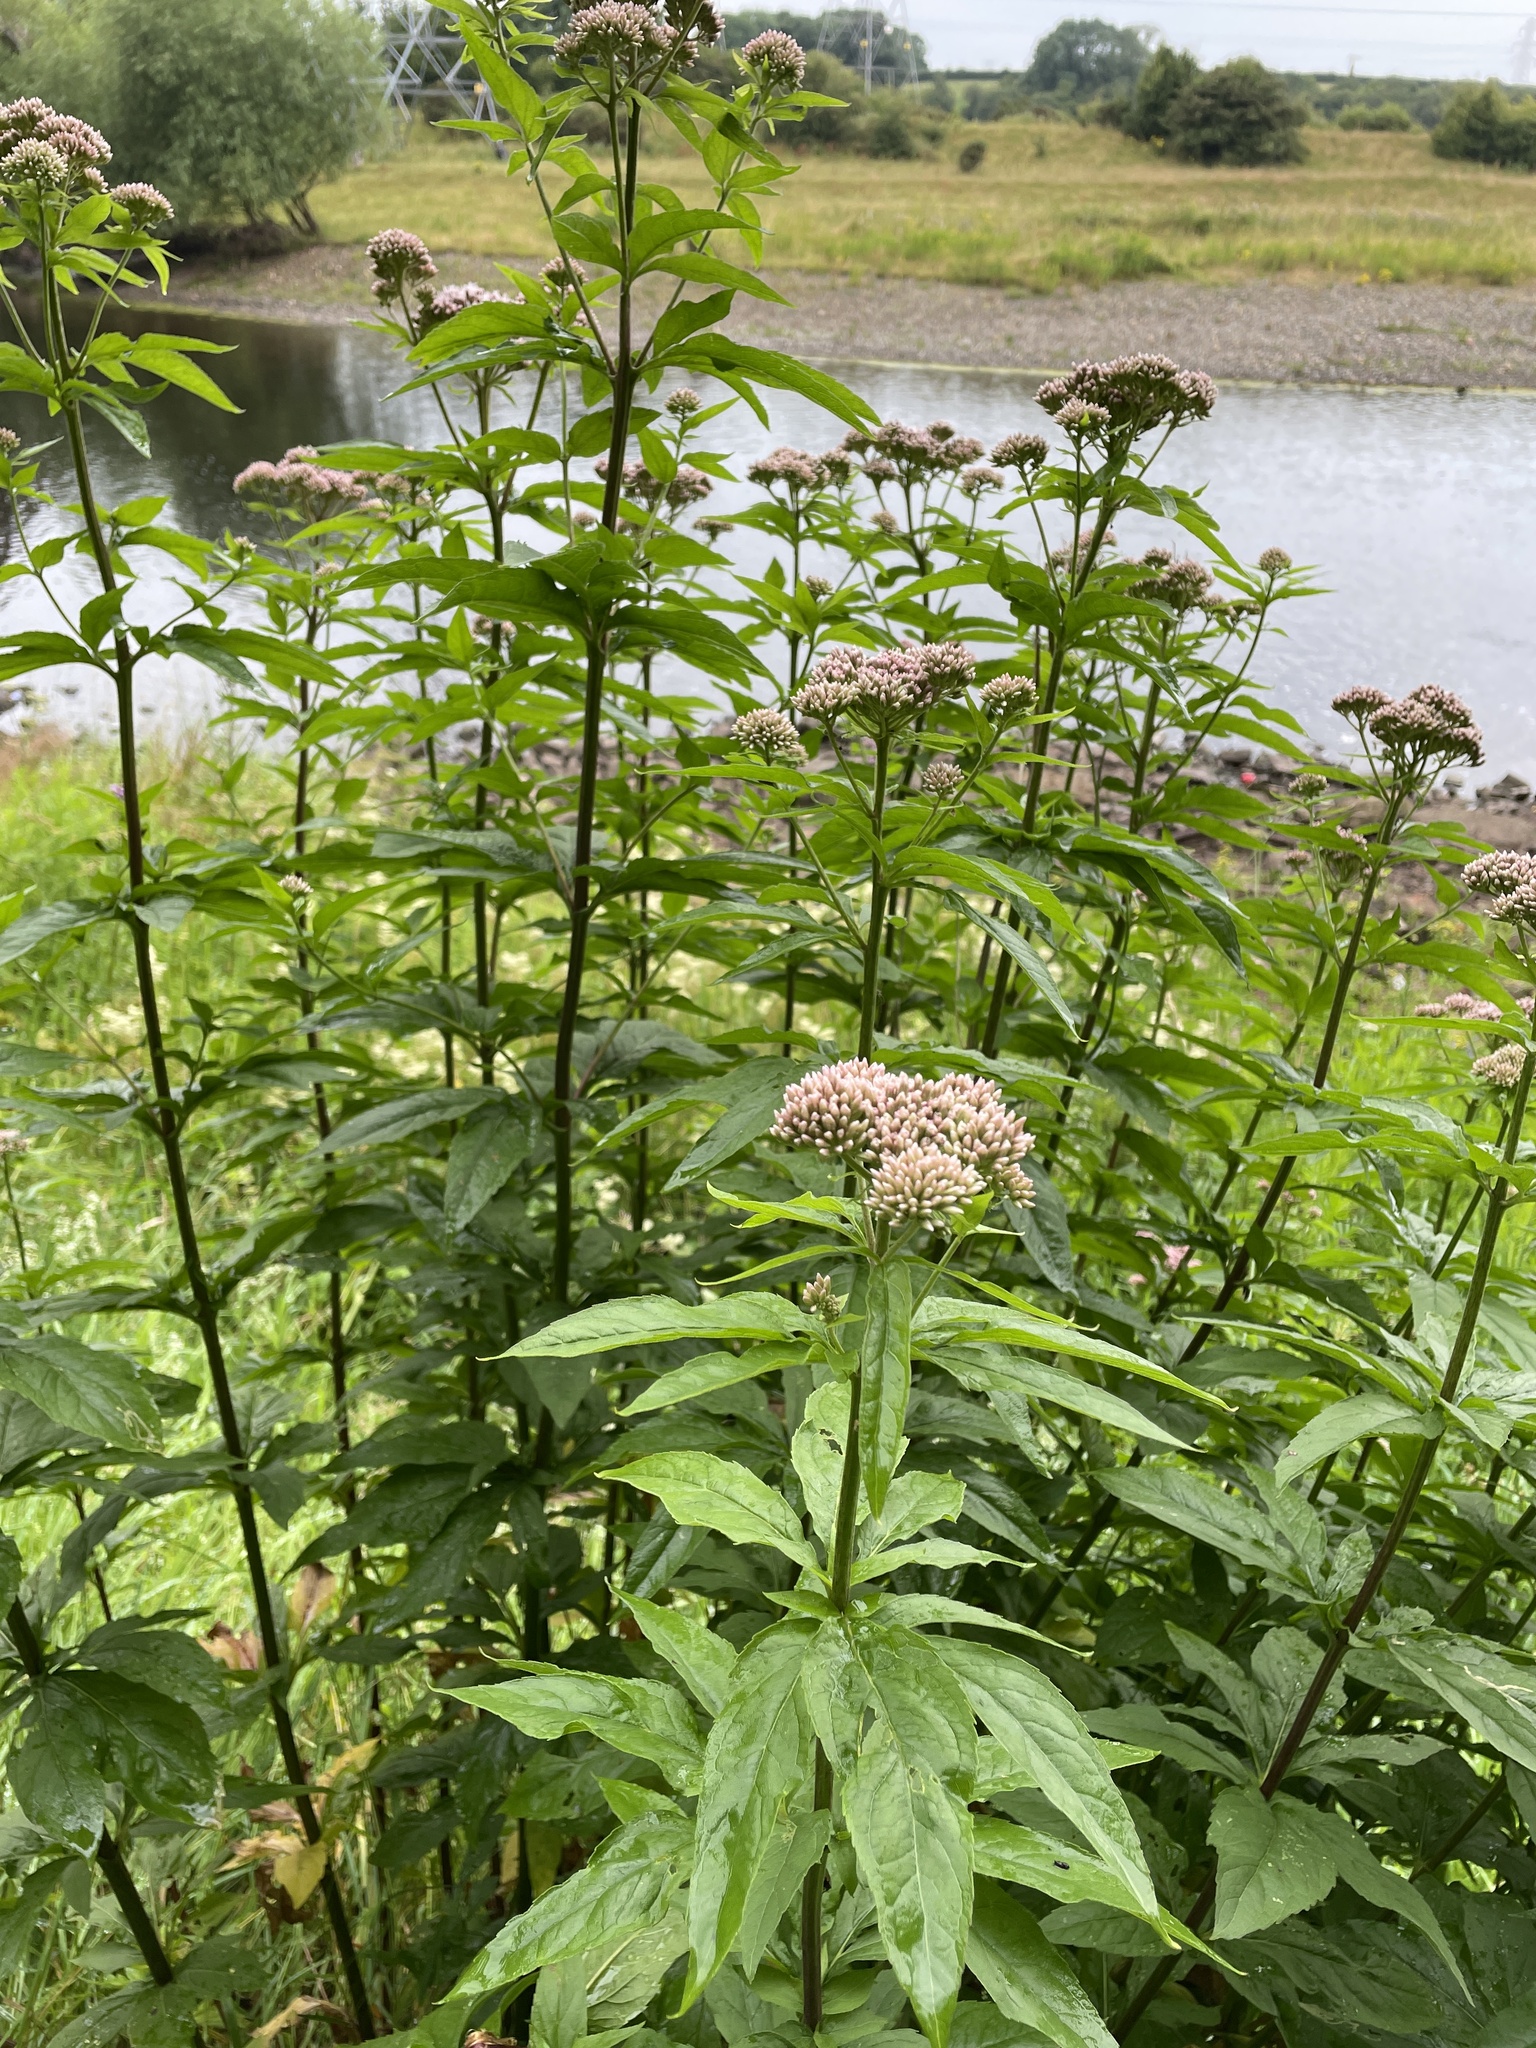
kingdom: Plantae
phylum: Tracheophyta
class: Magnoliopsida
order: Asterales
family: Asteraceae
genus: Eupatorium
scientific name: Eupatorium cannabinum
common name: Hemp-agrimony
